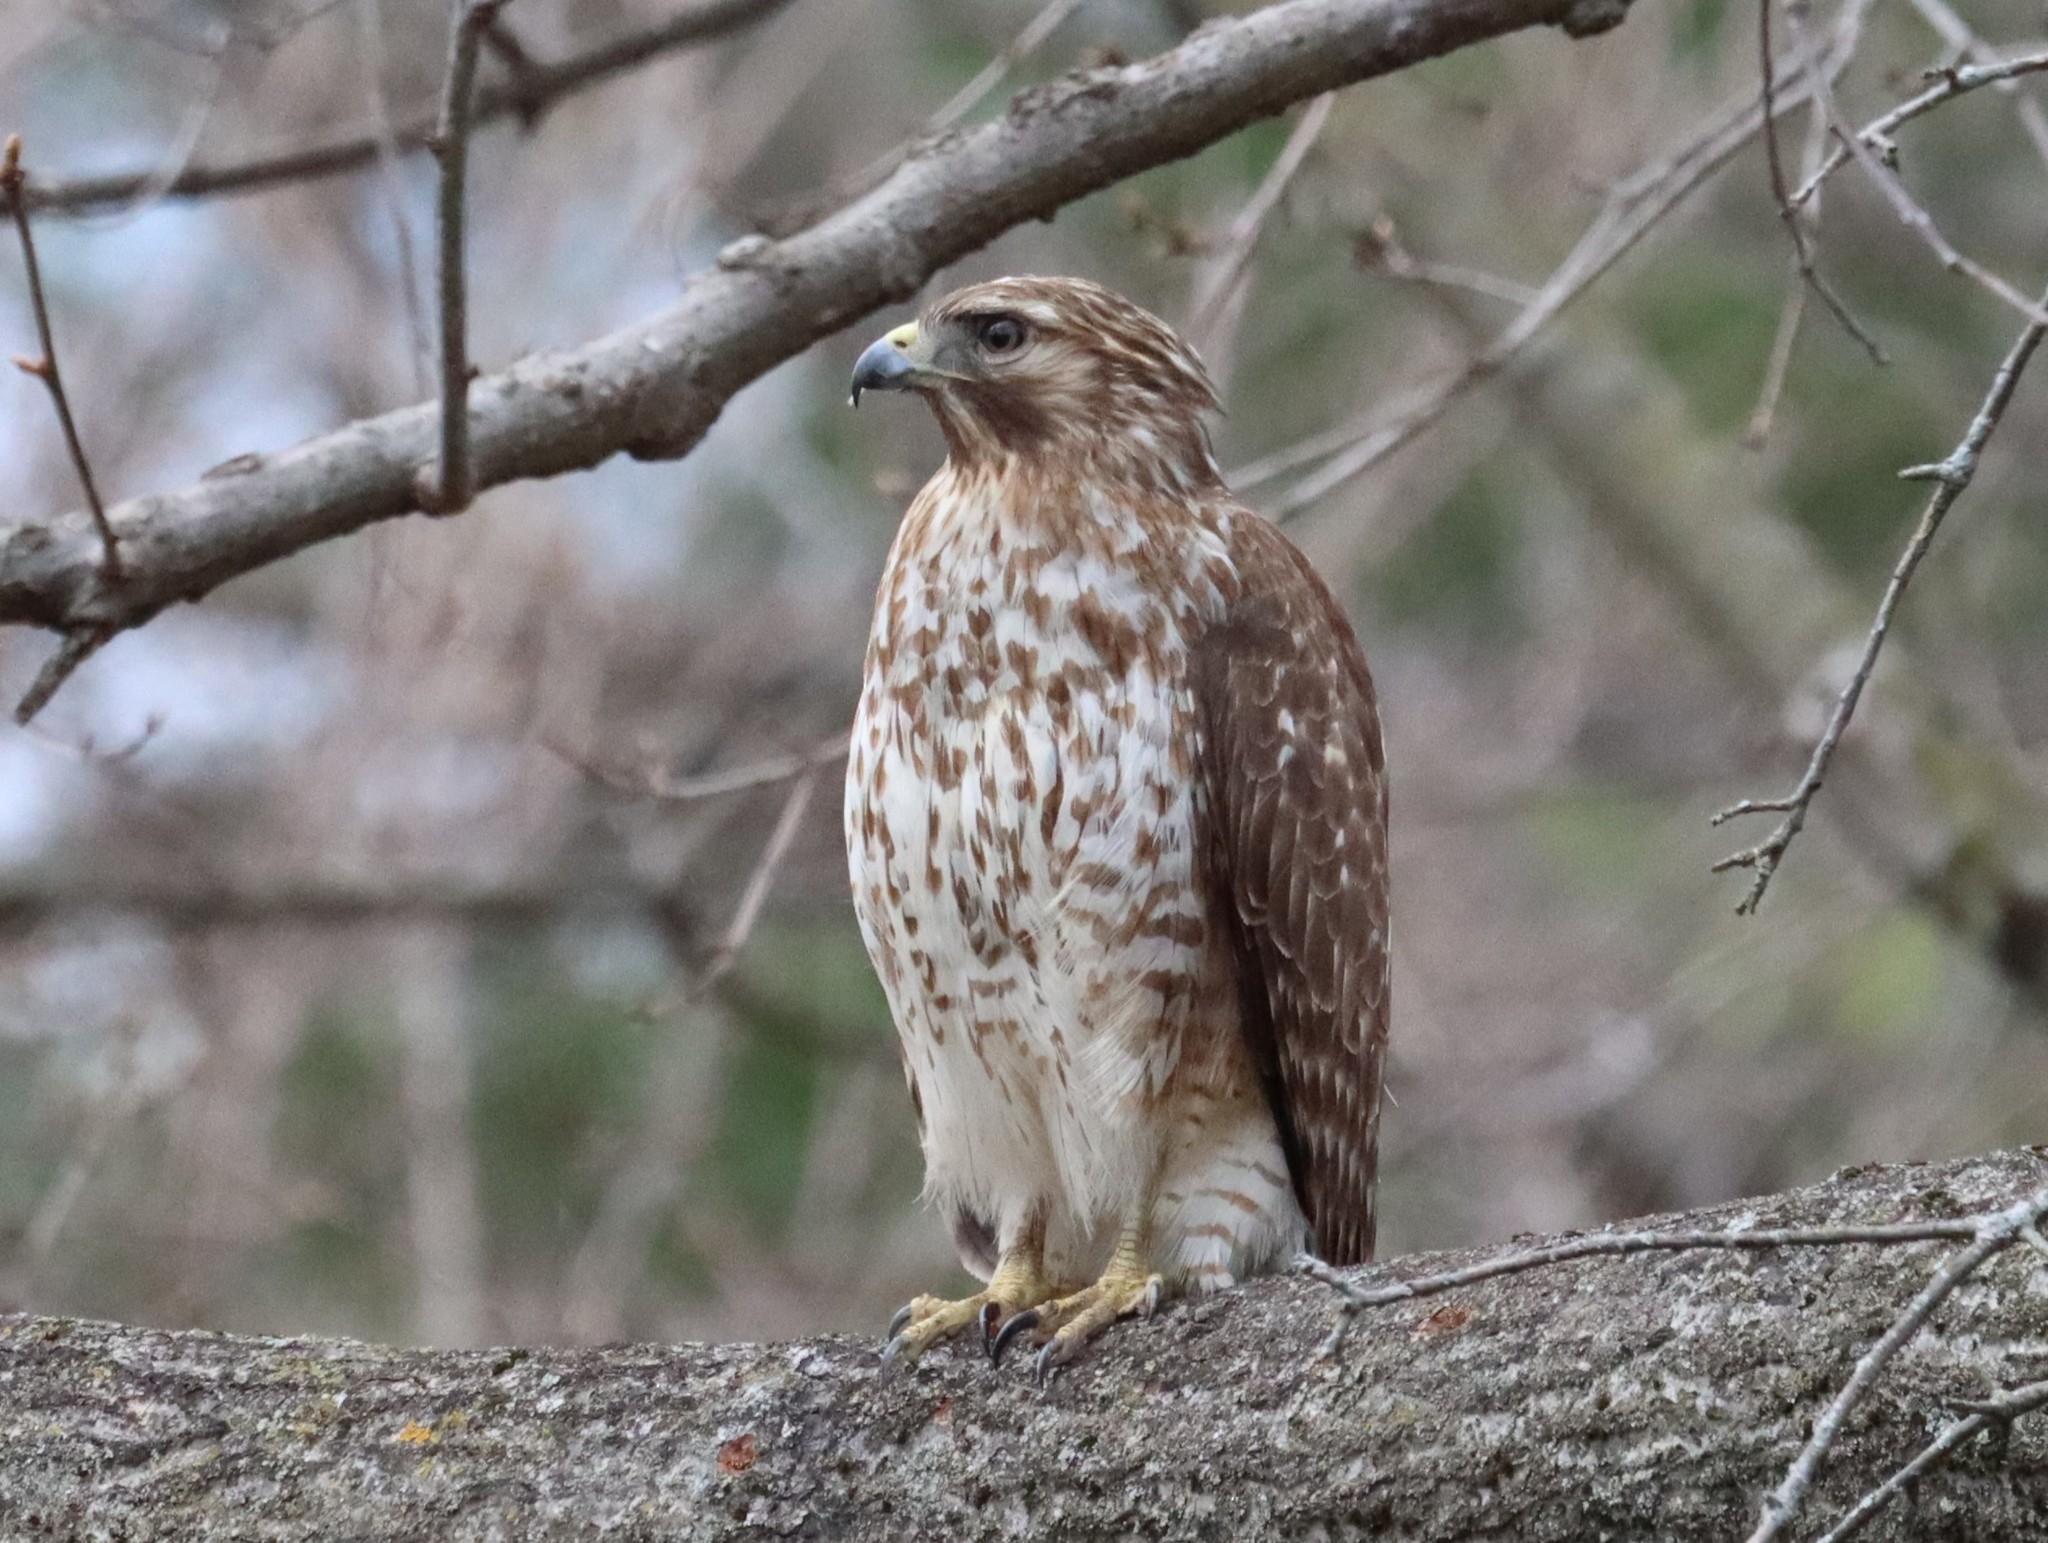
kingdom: Animalia
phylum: Chordata
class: Aves
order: Accipitriformes
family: Accipitridae
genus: Buteo
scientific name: Buteo lineatus
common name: Red-shouldered hawk
